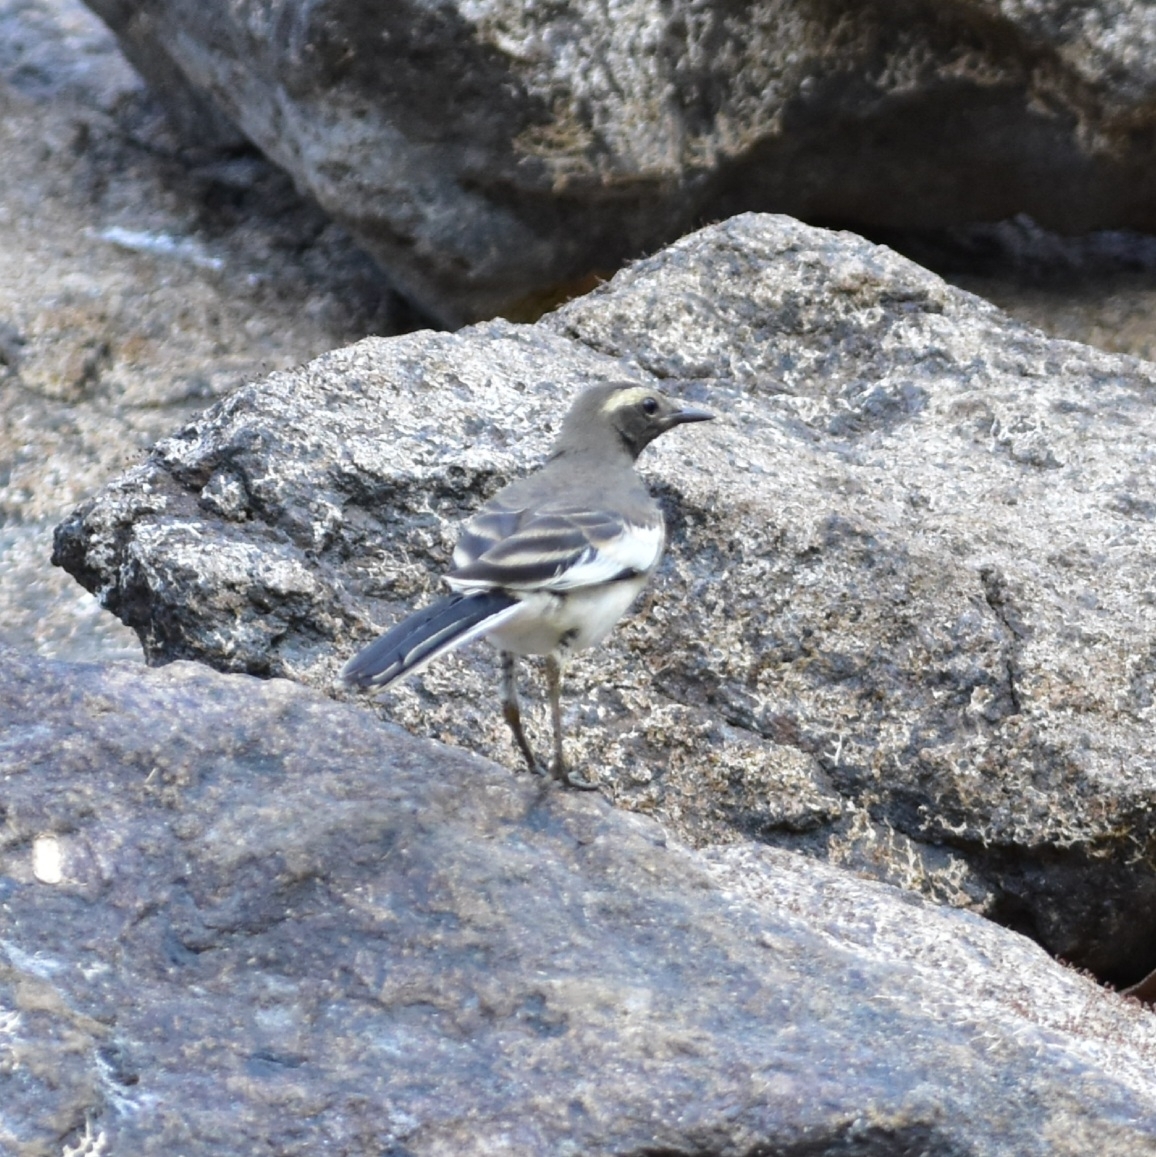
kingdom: Animalia
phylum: Chordata
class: Aves
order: Passeriformes
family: Motacillidae
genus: Motacilla
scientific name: Motacilla maderaspatensis
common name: White-browed wagtail
